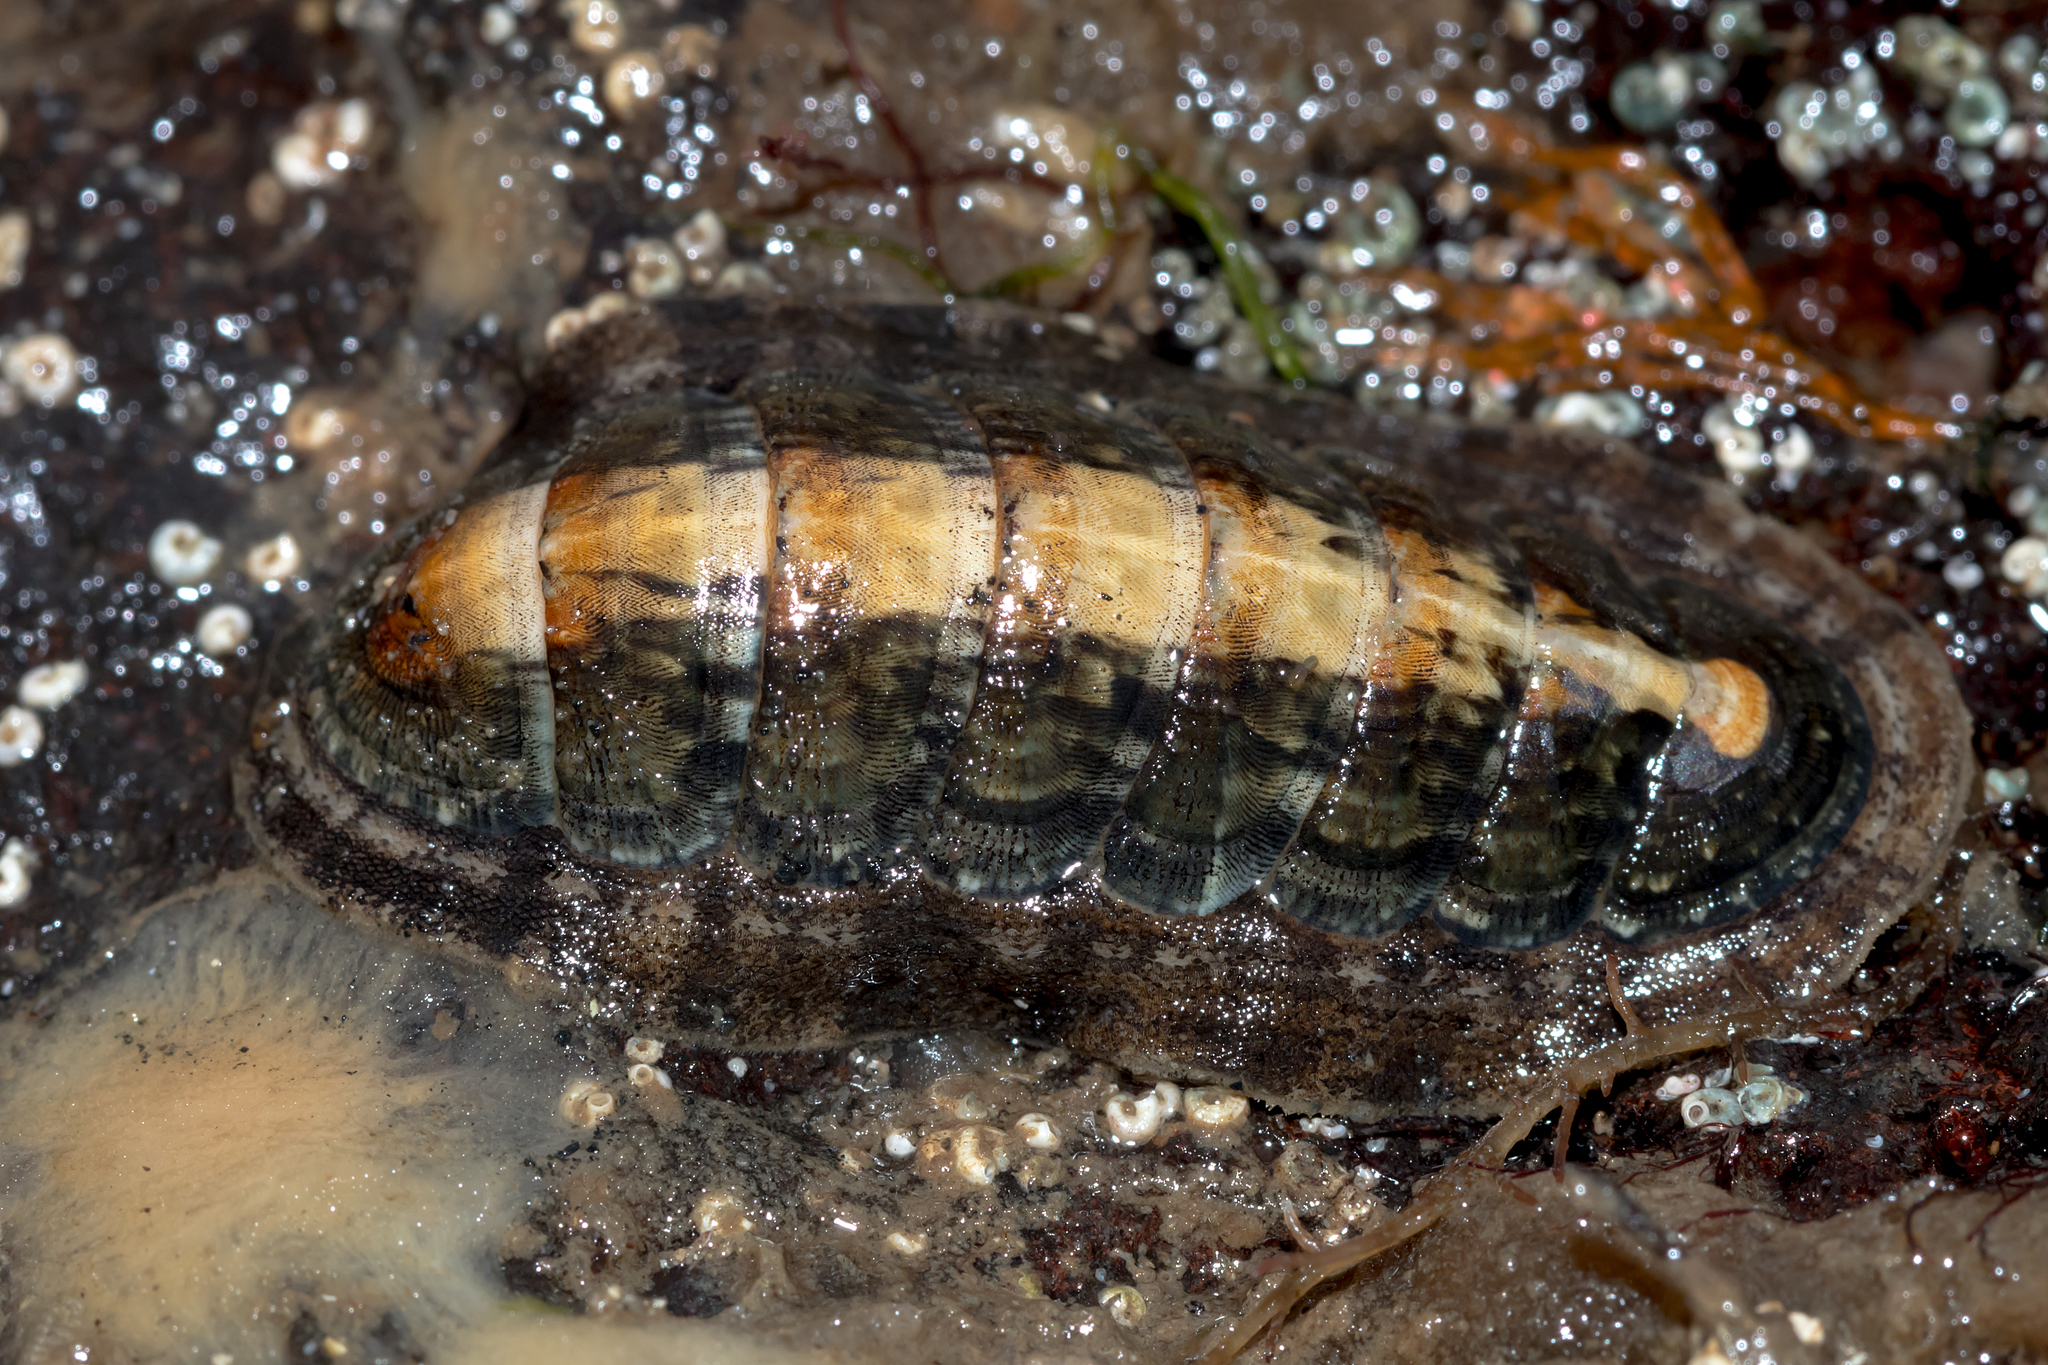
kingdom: Animalia
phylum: Mollusca
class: Polyplacophora
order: Chitonida
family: Ischnochitonidae
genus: Ischnochiton
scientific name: Ischnochiton elongatus
